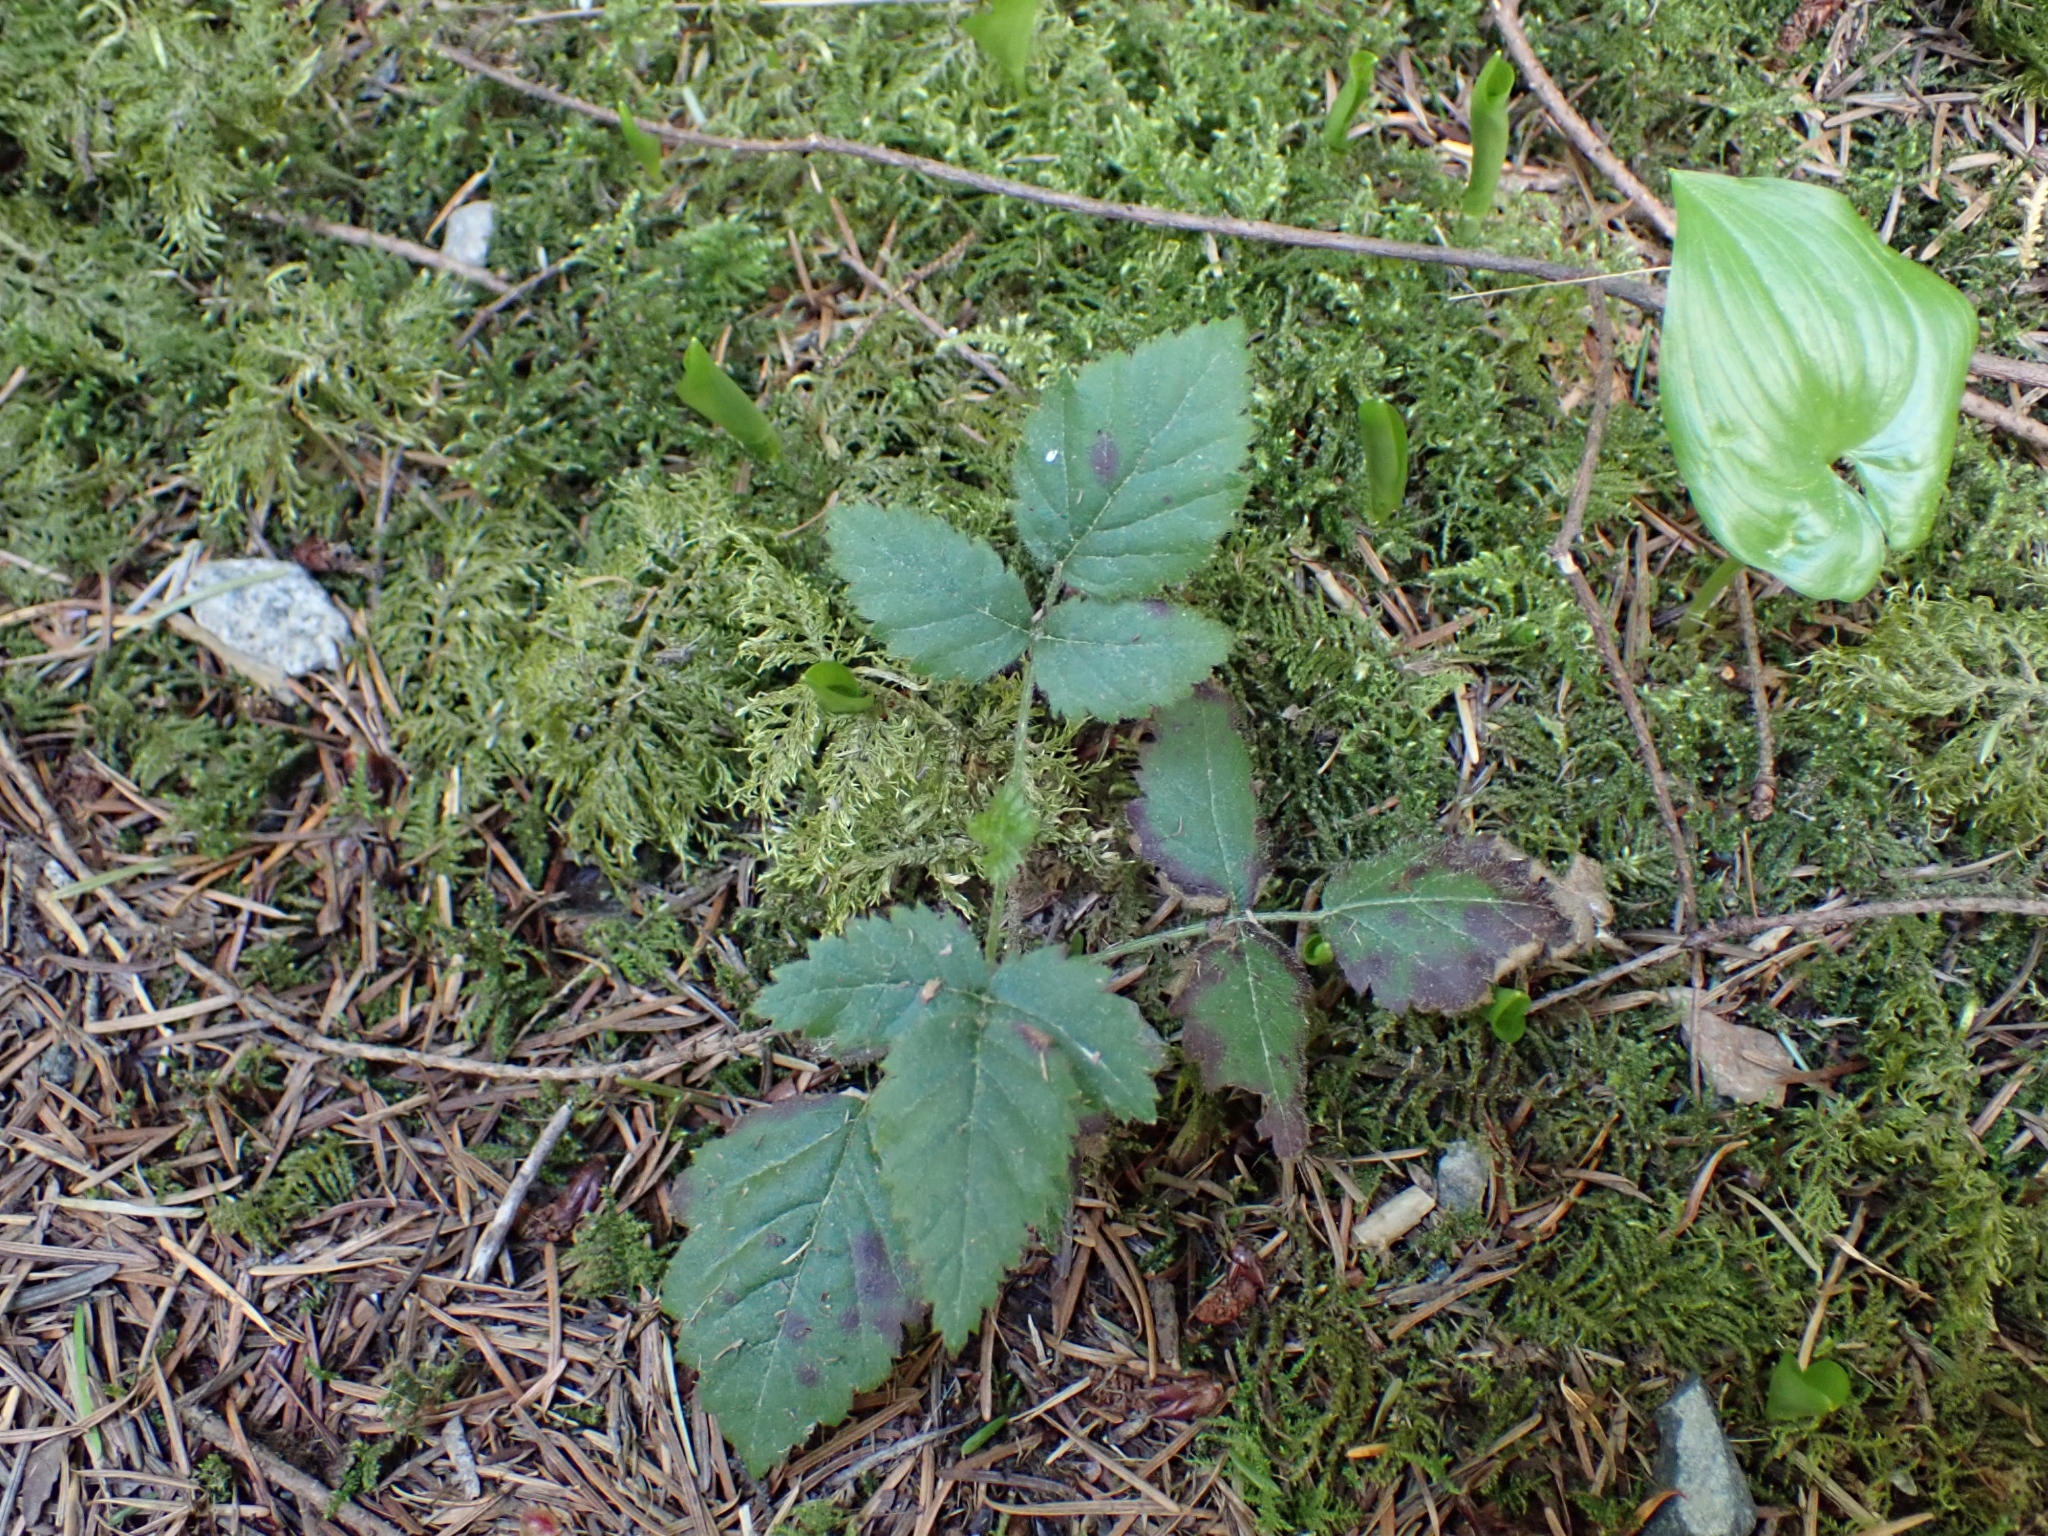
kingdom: Plantae
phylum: Tracheophyta
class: Magnoliopsida
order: Rosales
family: Rosaceae
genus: Rubus
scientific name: Rubus ursinus
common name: Pacific blackberry
